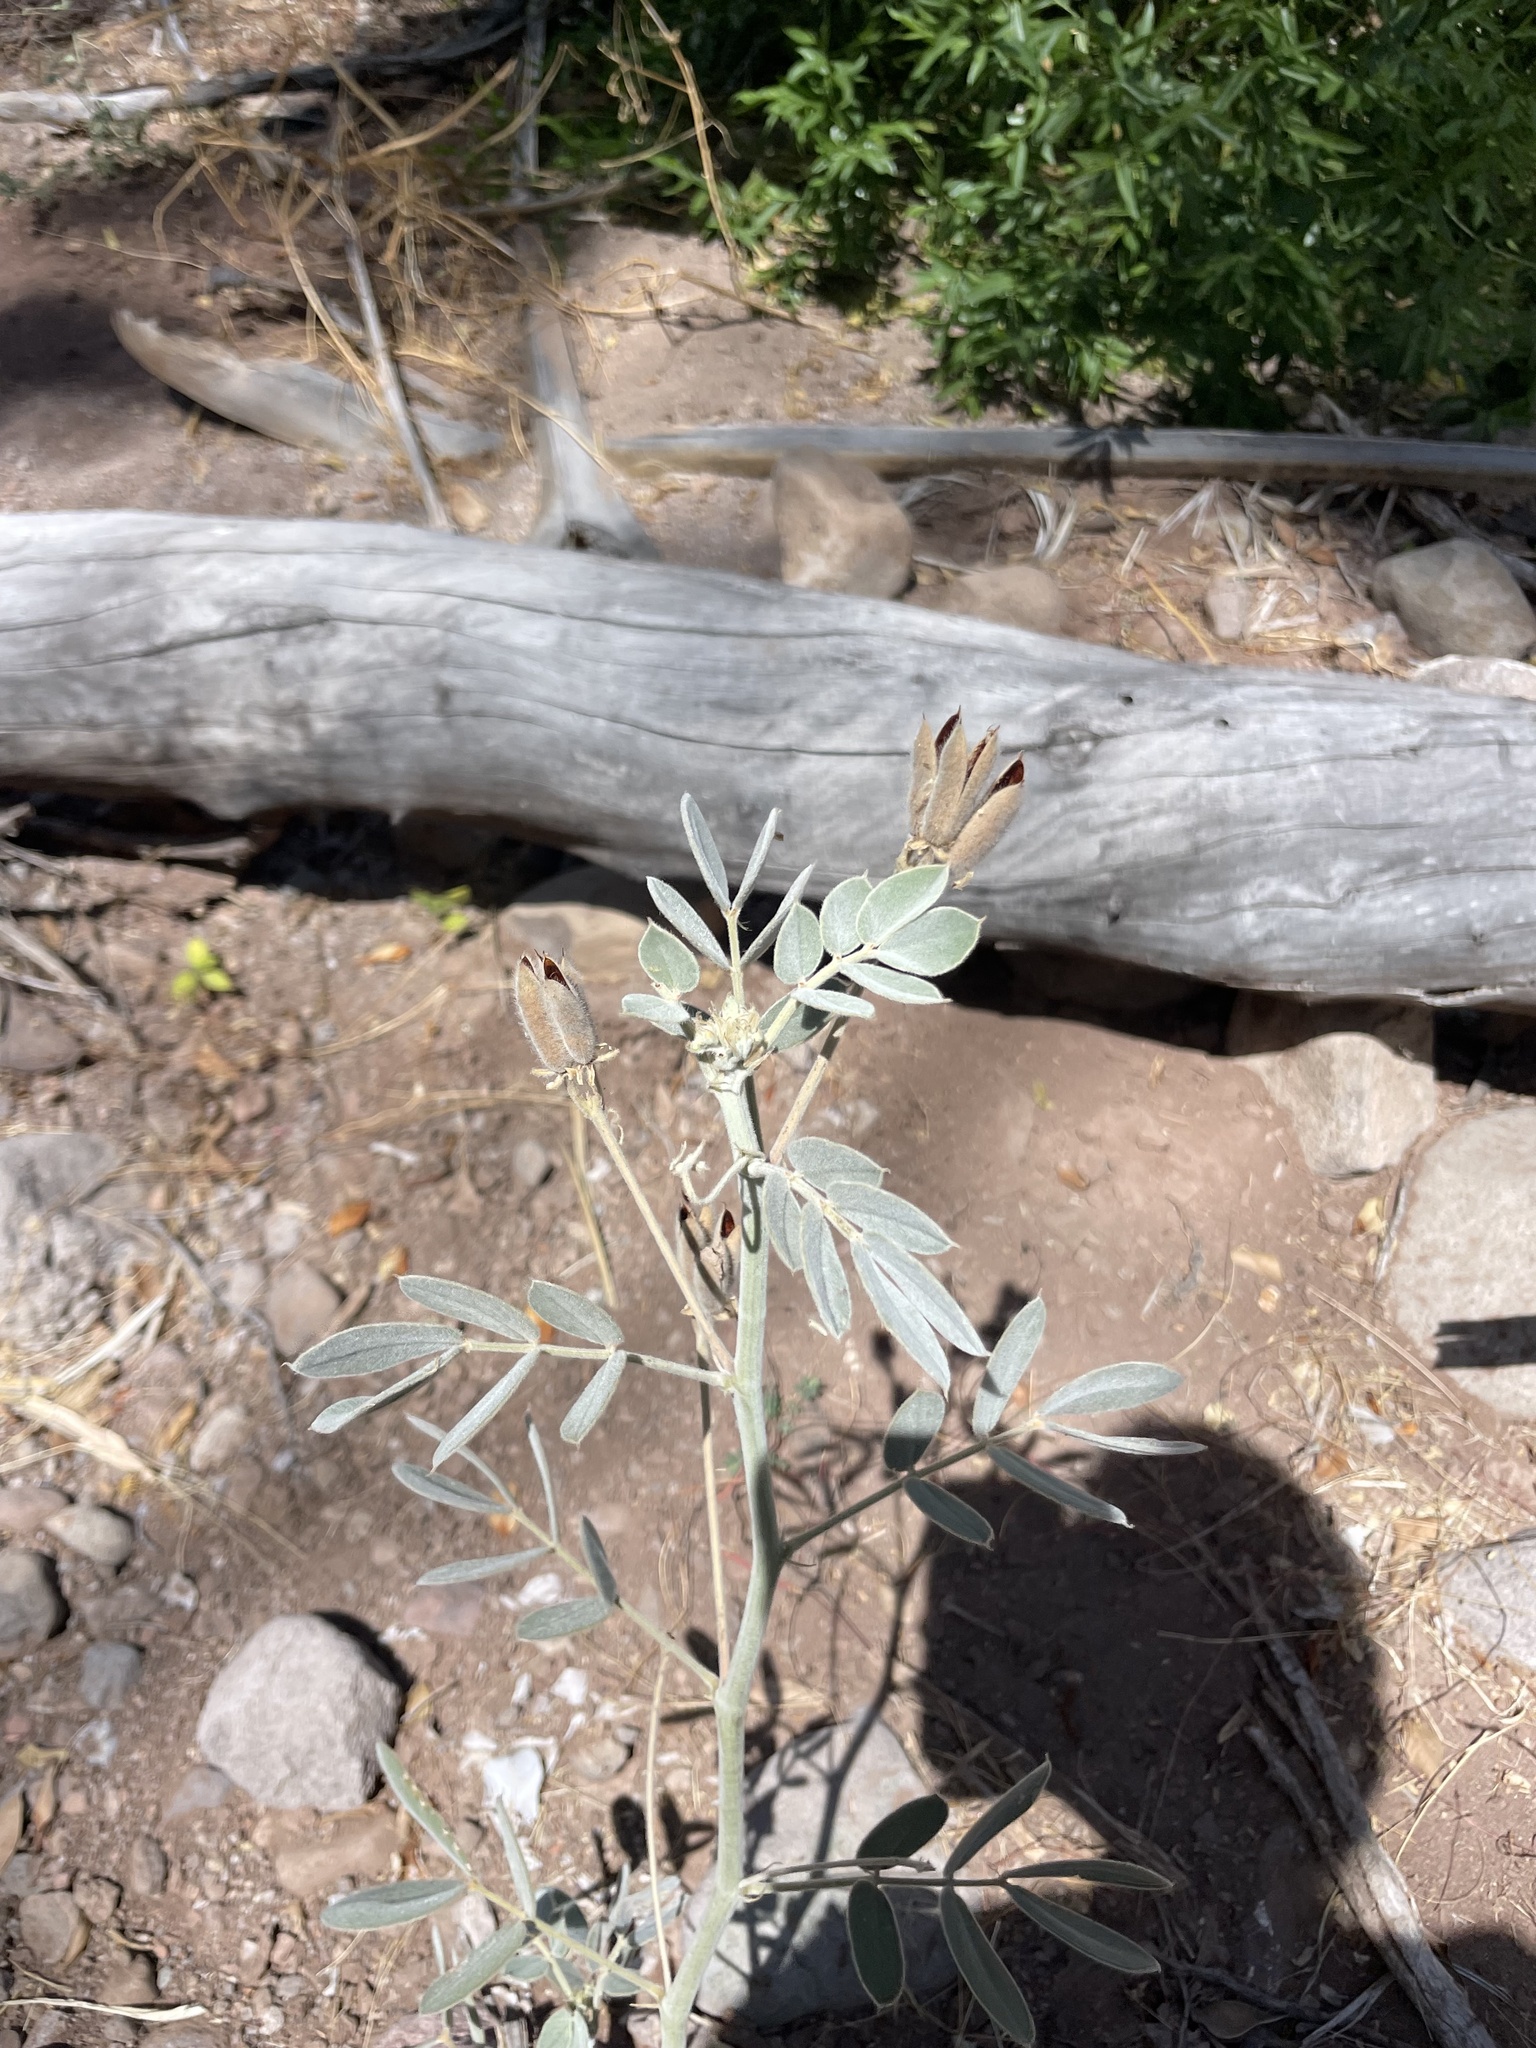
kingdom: Plantae
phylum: Tracheophyta
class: Magnoliopsida
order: Fabales
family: Fabaceae
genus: Senna
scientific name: Senna confinis
